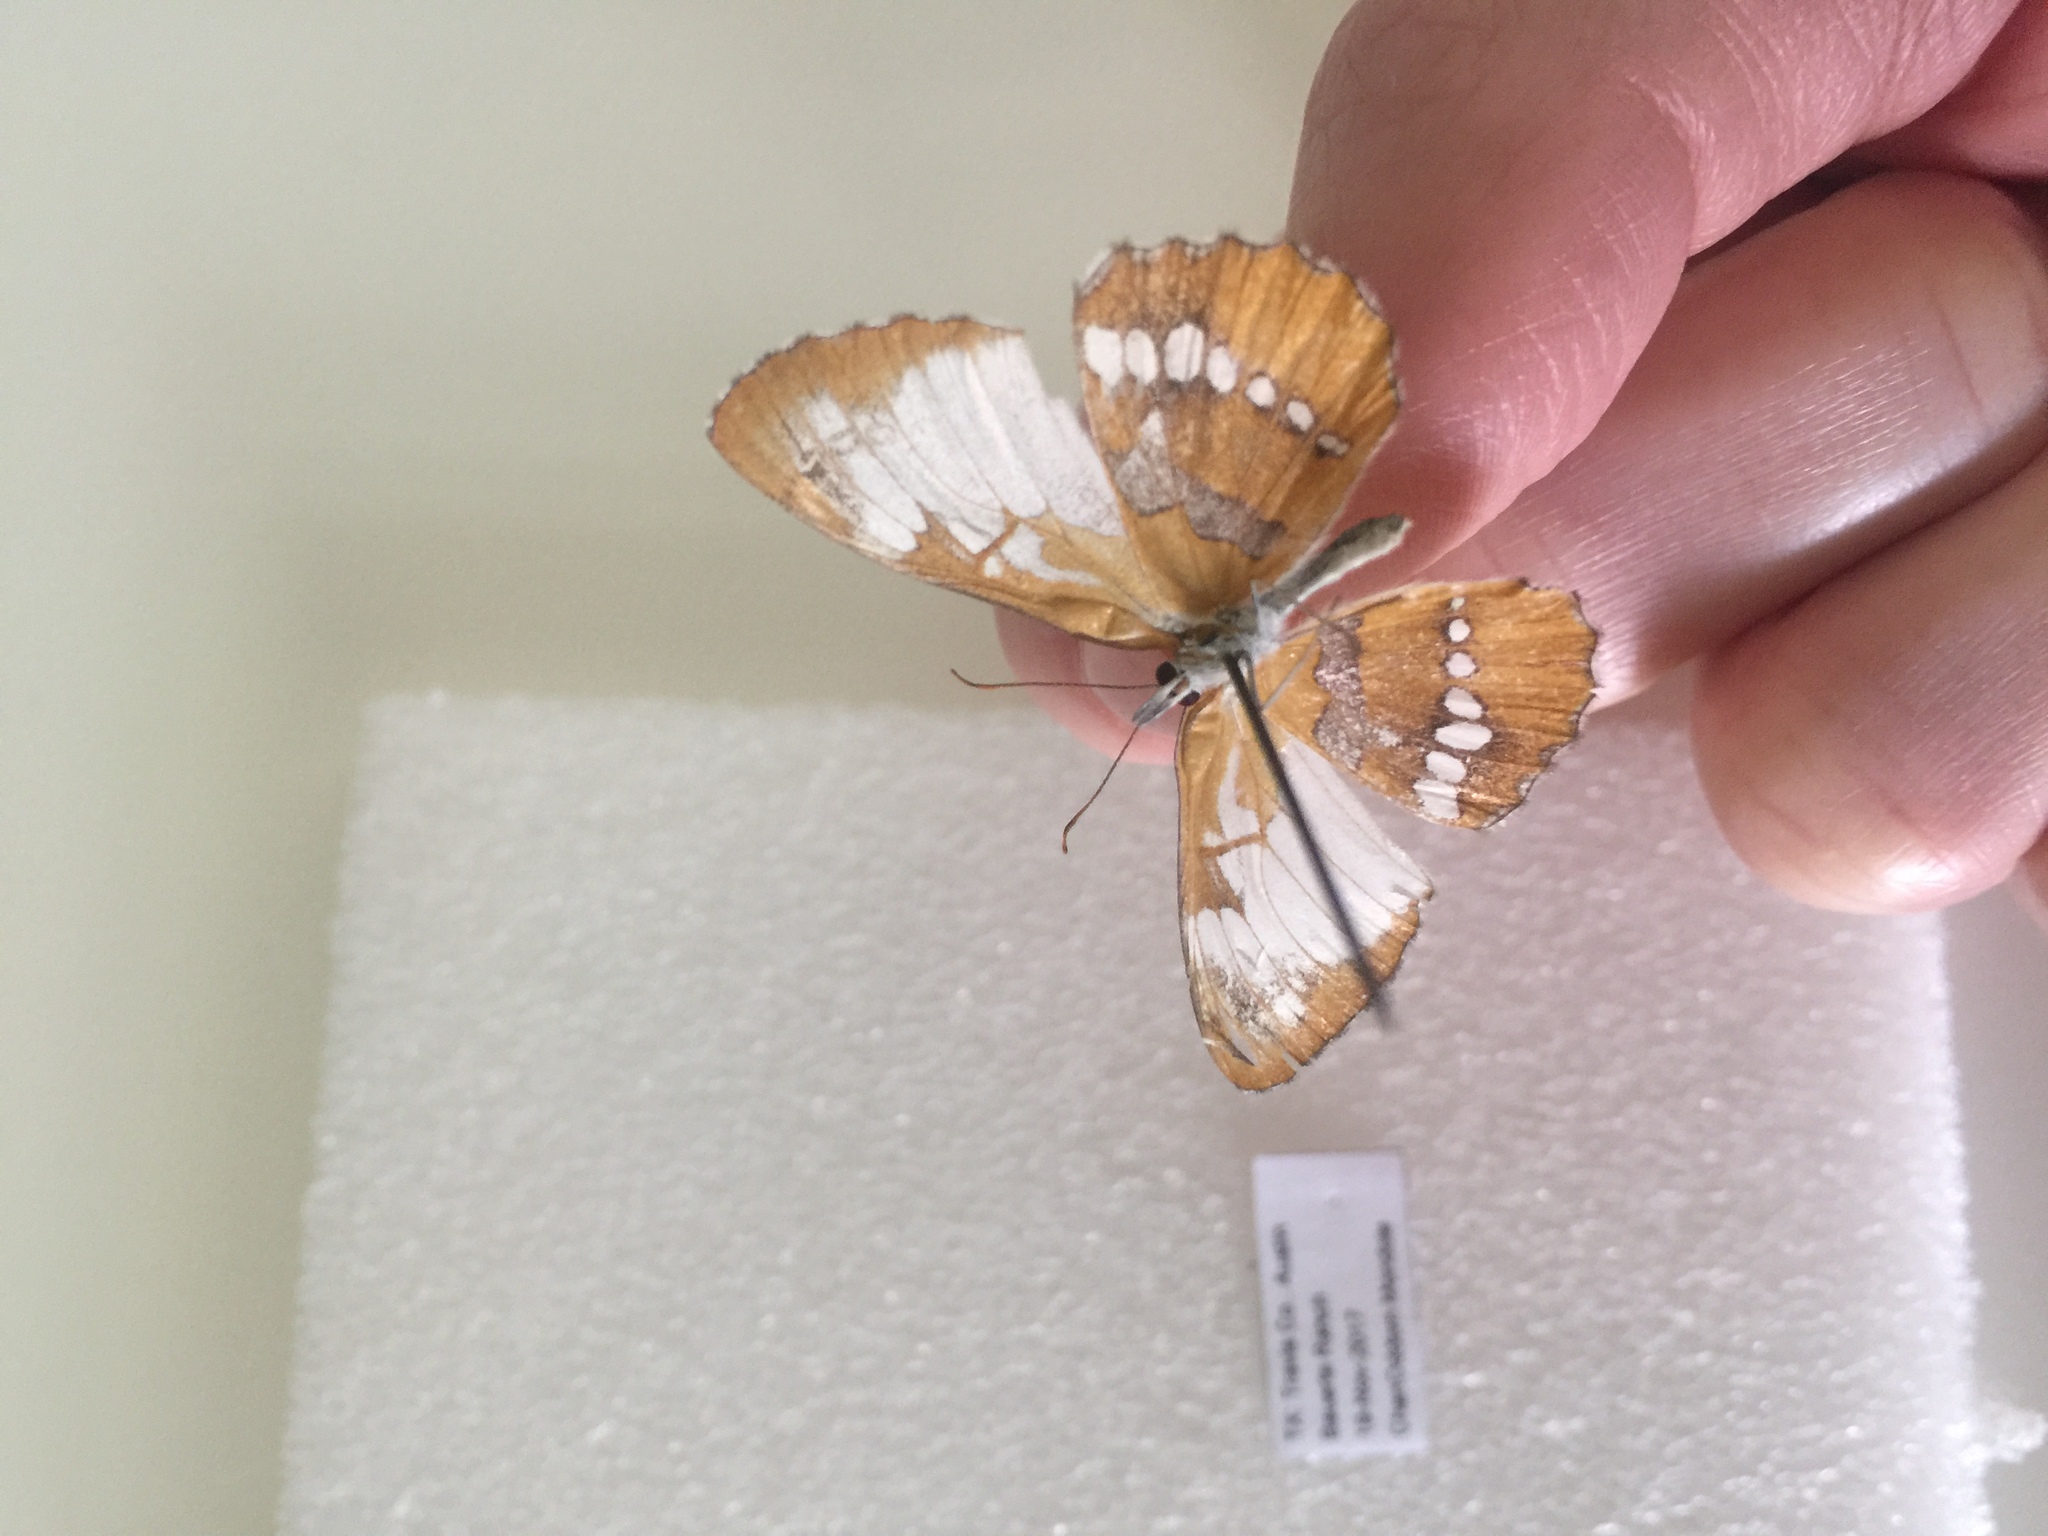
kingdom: Animalia
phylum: Arthropoda
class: Insecta
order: Lepidoptera
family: Nymphalidae
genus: Mestra
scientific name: Mestra amymone
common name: Common mestra
